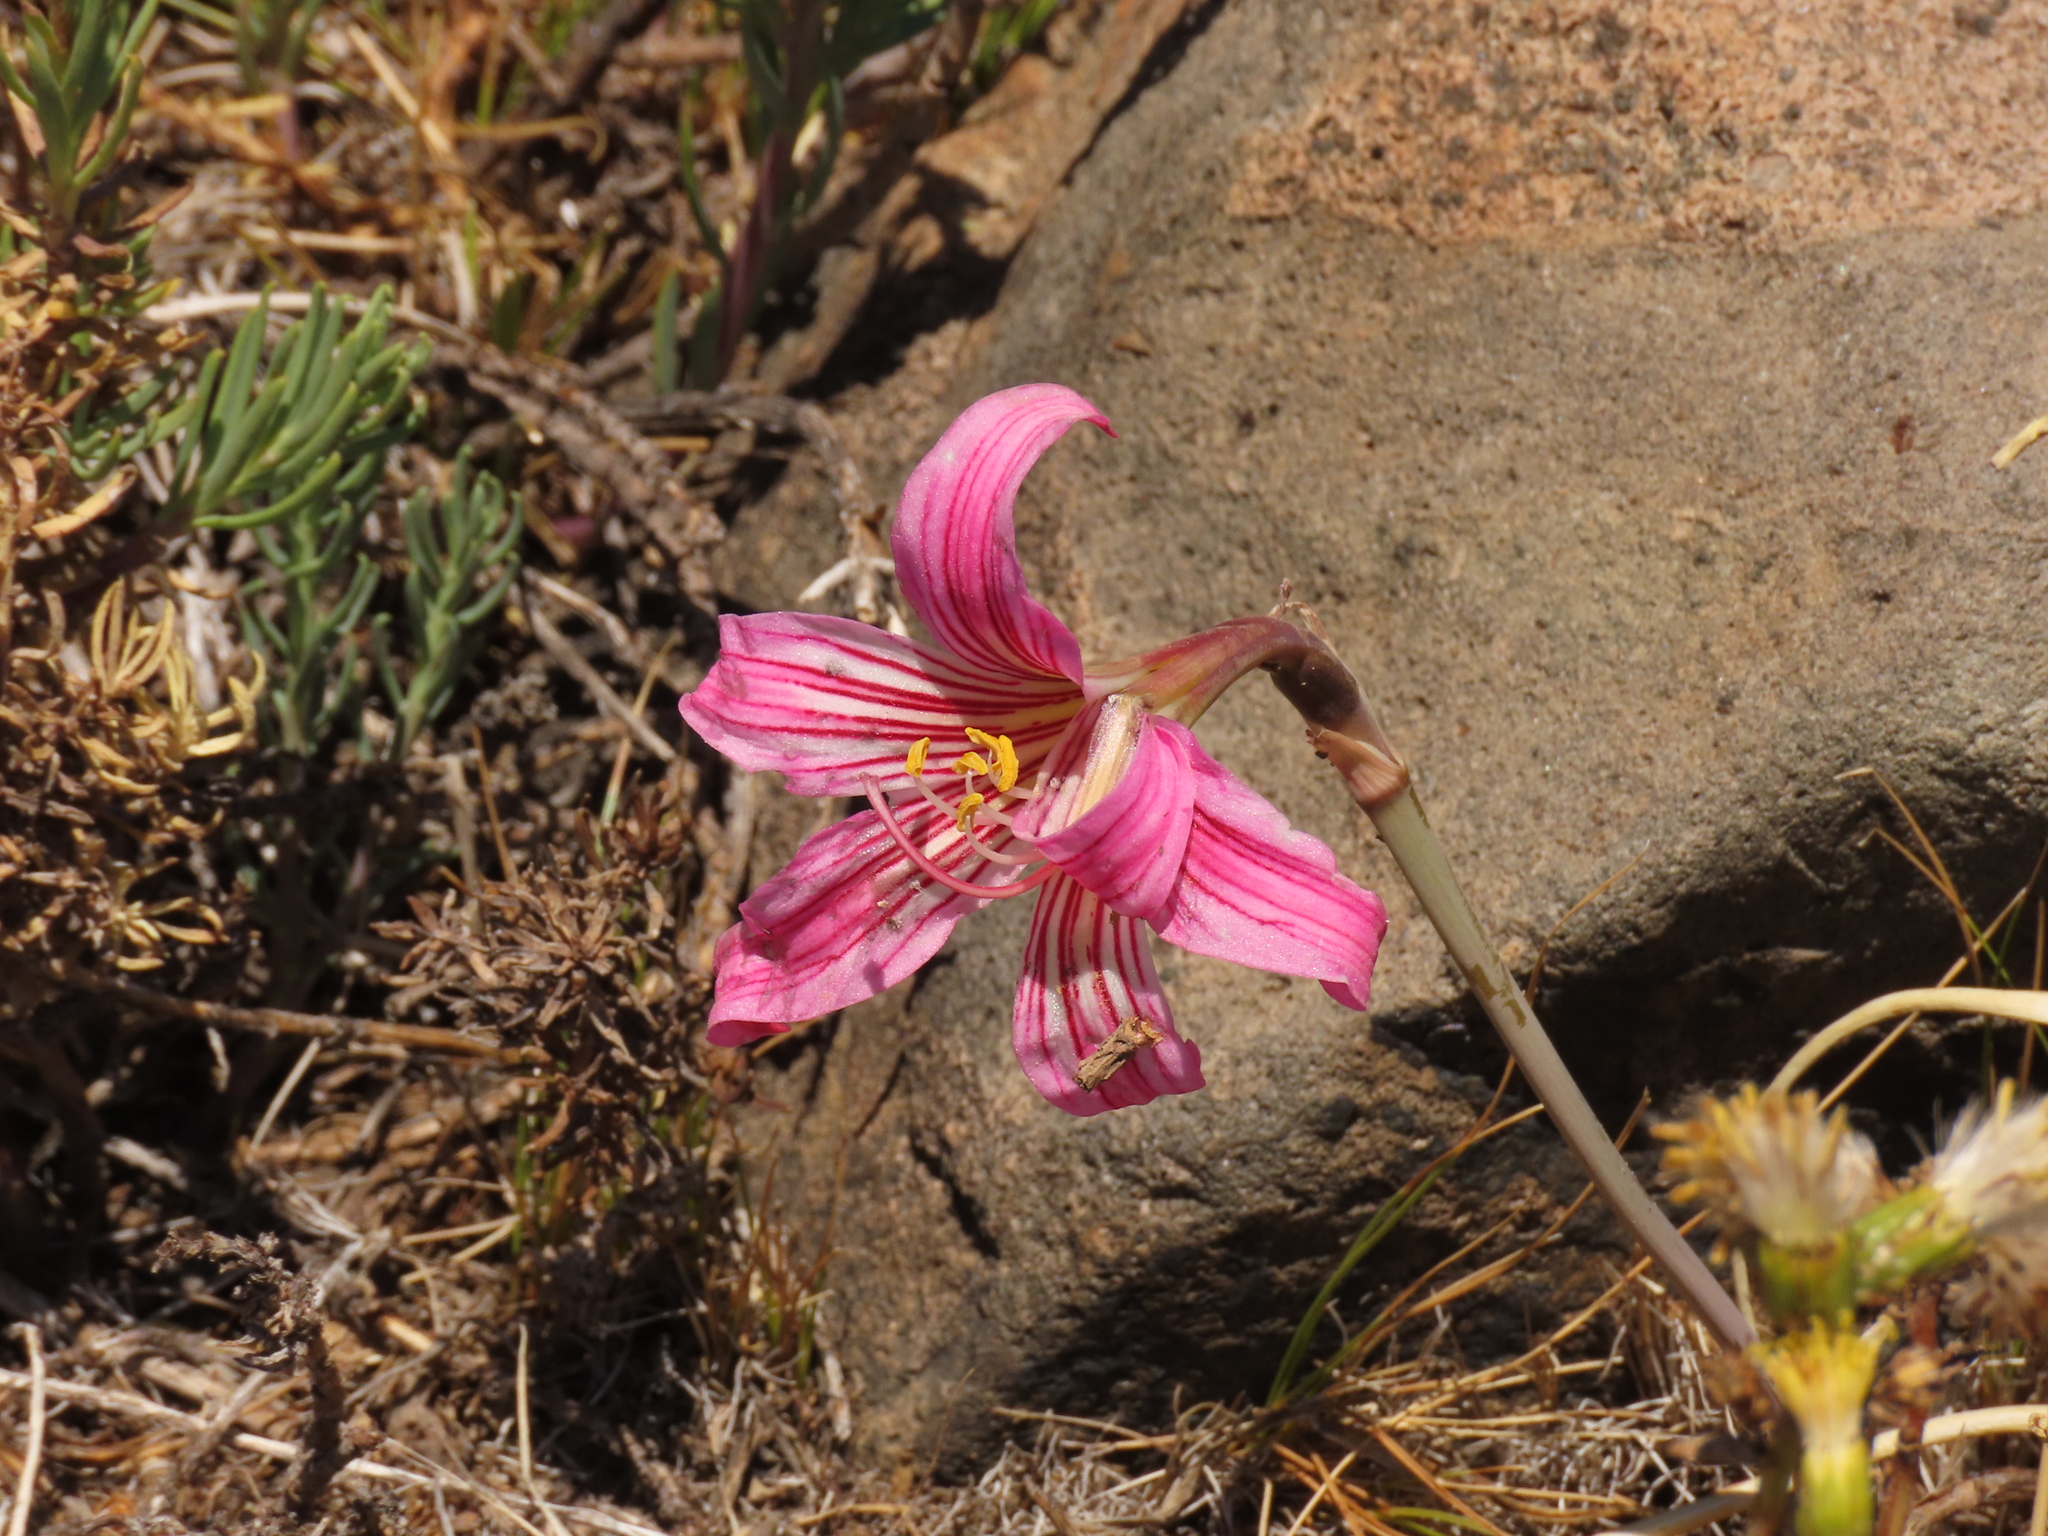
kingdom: Plantae
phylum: Tracheophyta
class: Liliopsida
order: Asparagales
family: Amaryllidaceae
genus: Rhodolirium
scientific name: Rhodolirium montanum
